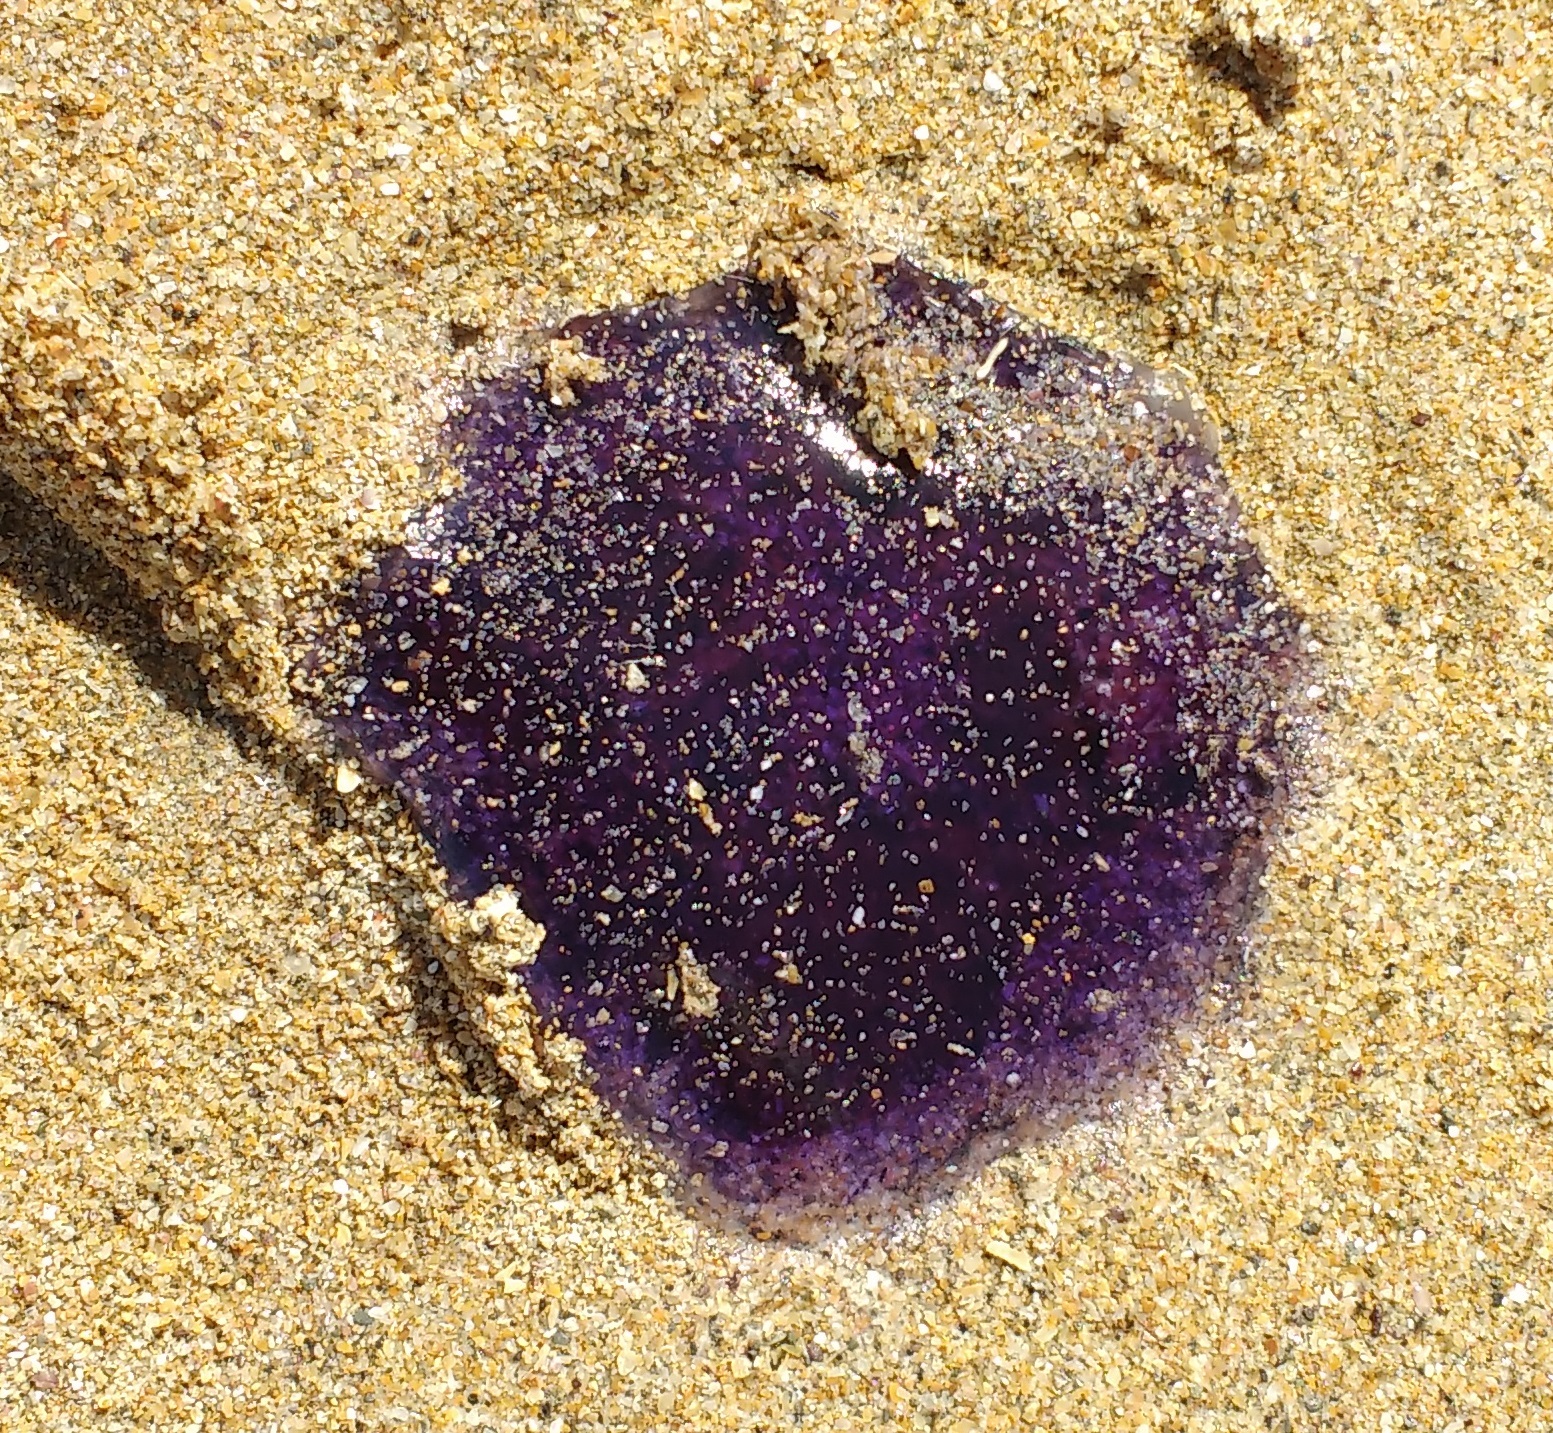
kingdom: Animalia
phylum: Cnidaria
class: Scyphozoa
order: Semaeostomeae
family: Cyaneidae
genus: Cyanea
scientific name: Cyanea lamarckii
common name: Blue jellyfish
